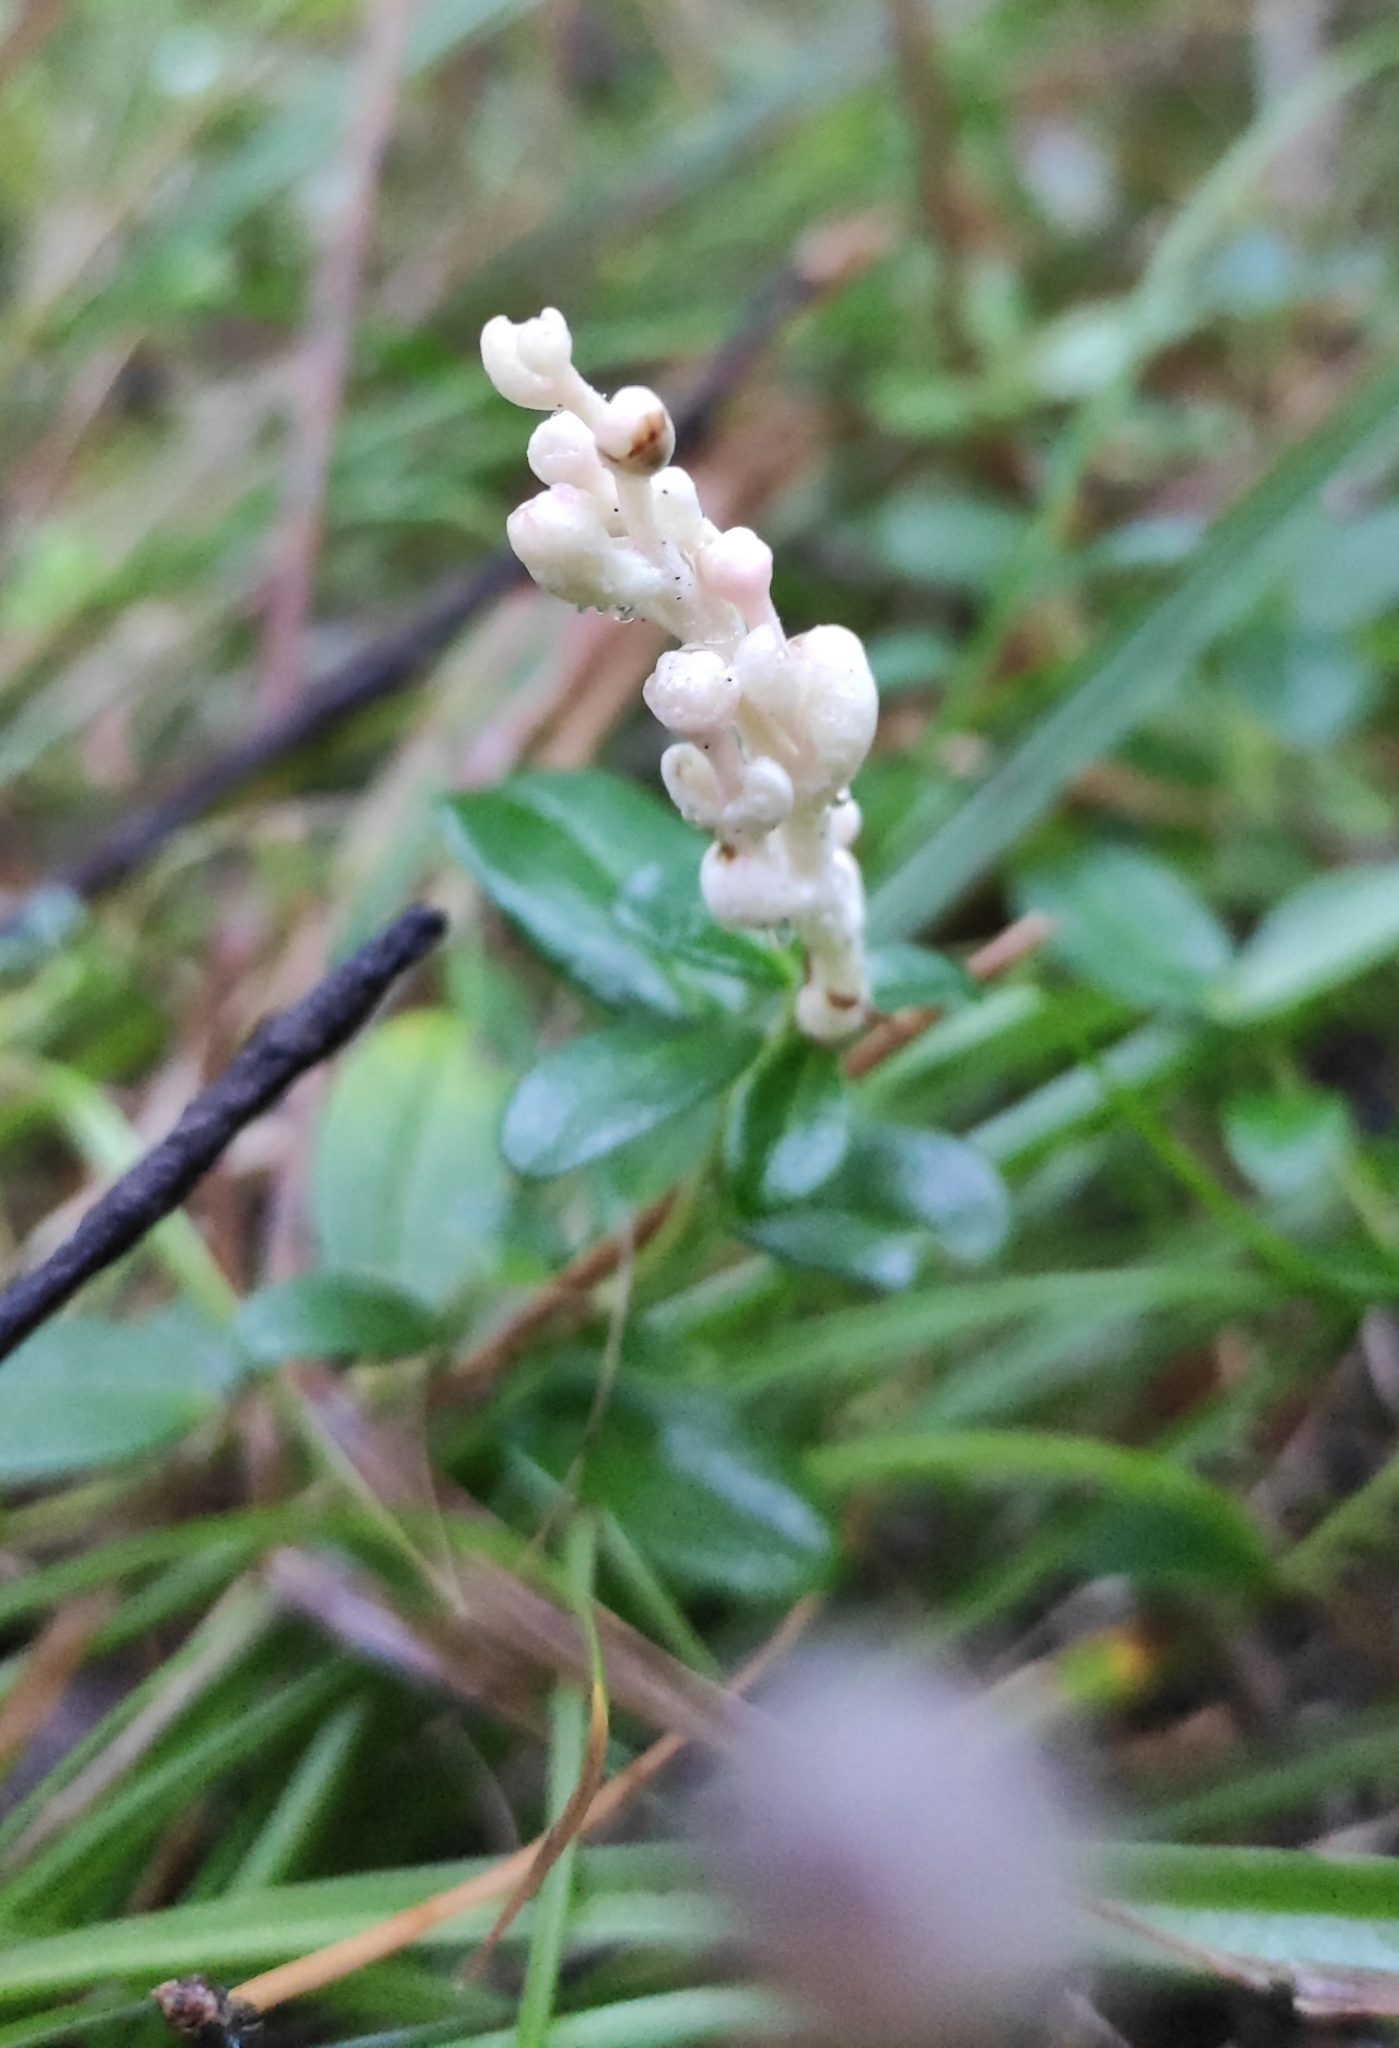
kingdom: Fungi
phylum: Basidiomycota
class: Exobasidiomycetes
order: Exobasidiales
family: Exobasidiaceae
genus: Exobasidium
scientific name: Exobasidium vaccinii
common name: Cowberry redleaf
